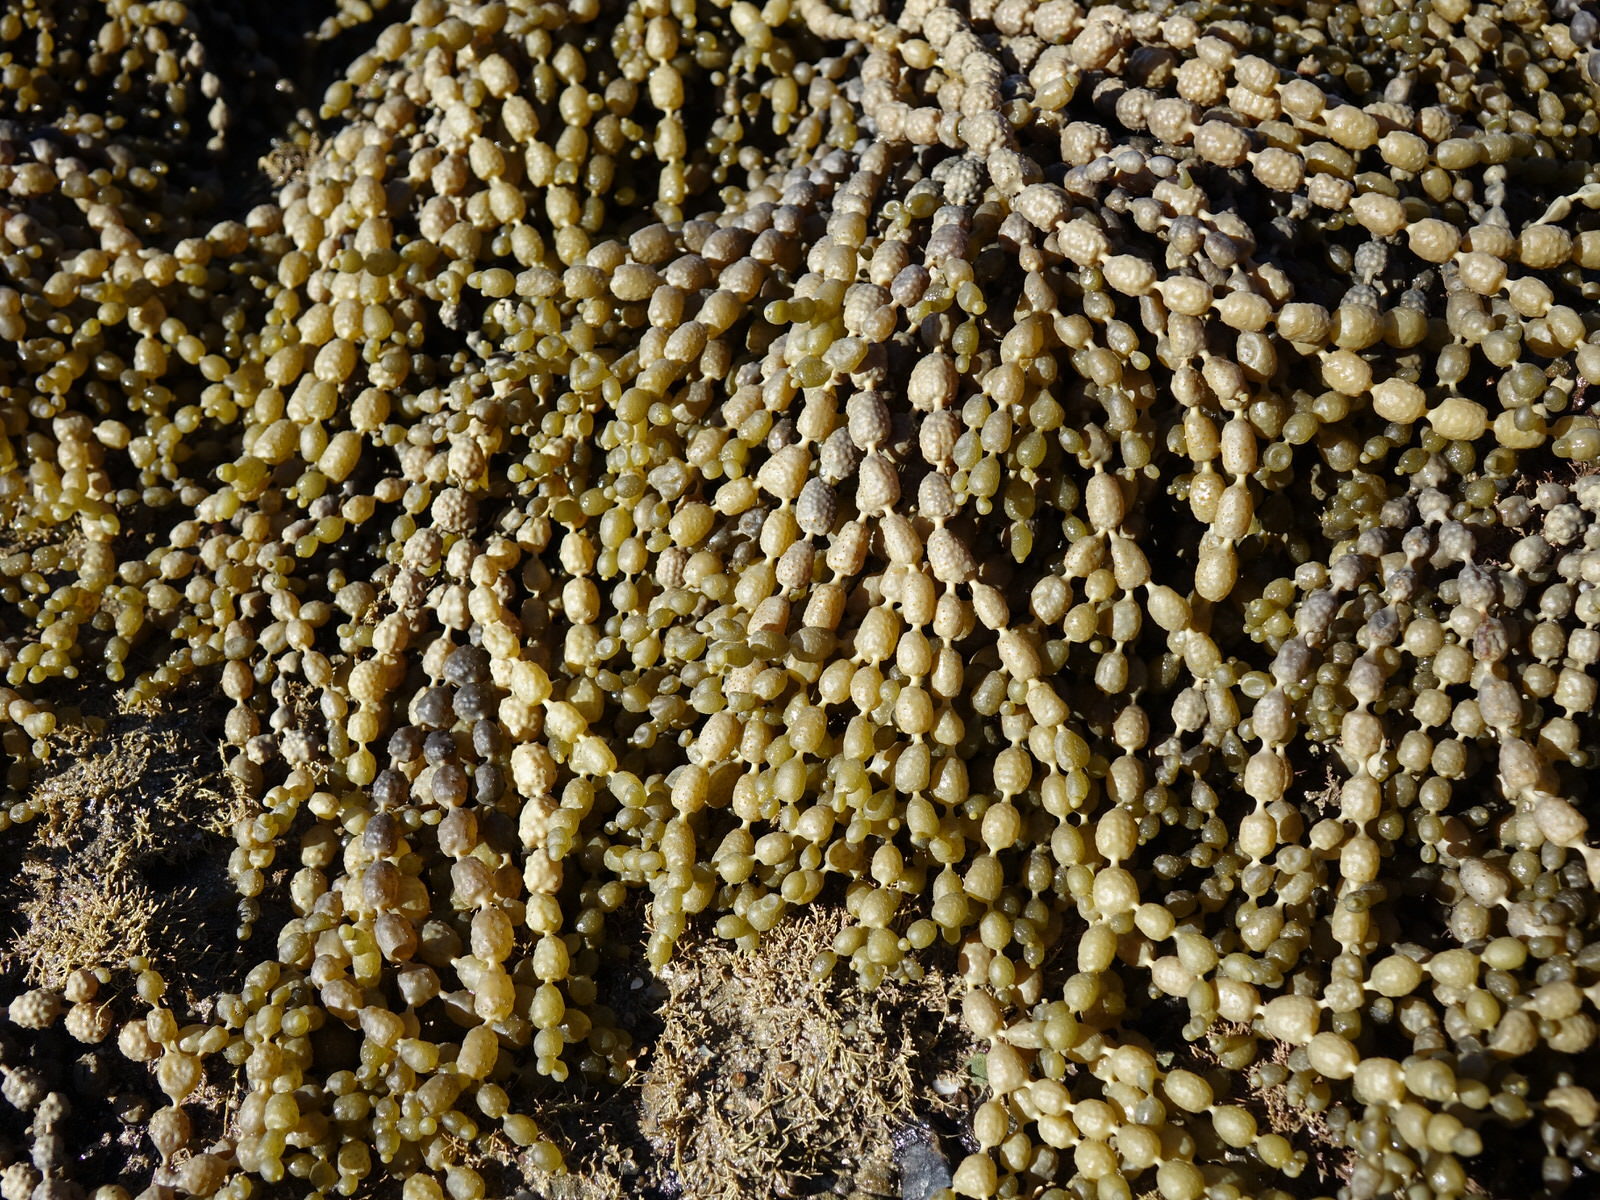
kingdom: Chromista
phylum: Ochrophyta
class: Phaeophyceae
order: Fucales
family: Hormosiraceae
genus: Hormosira
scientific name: Hormosira banksii
